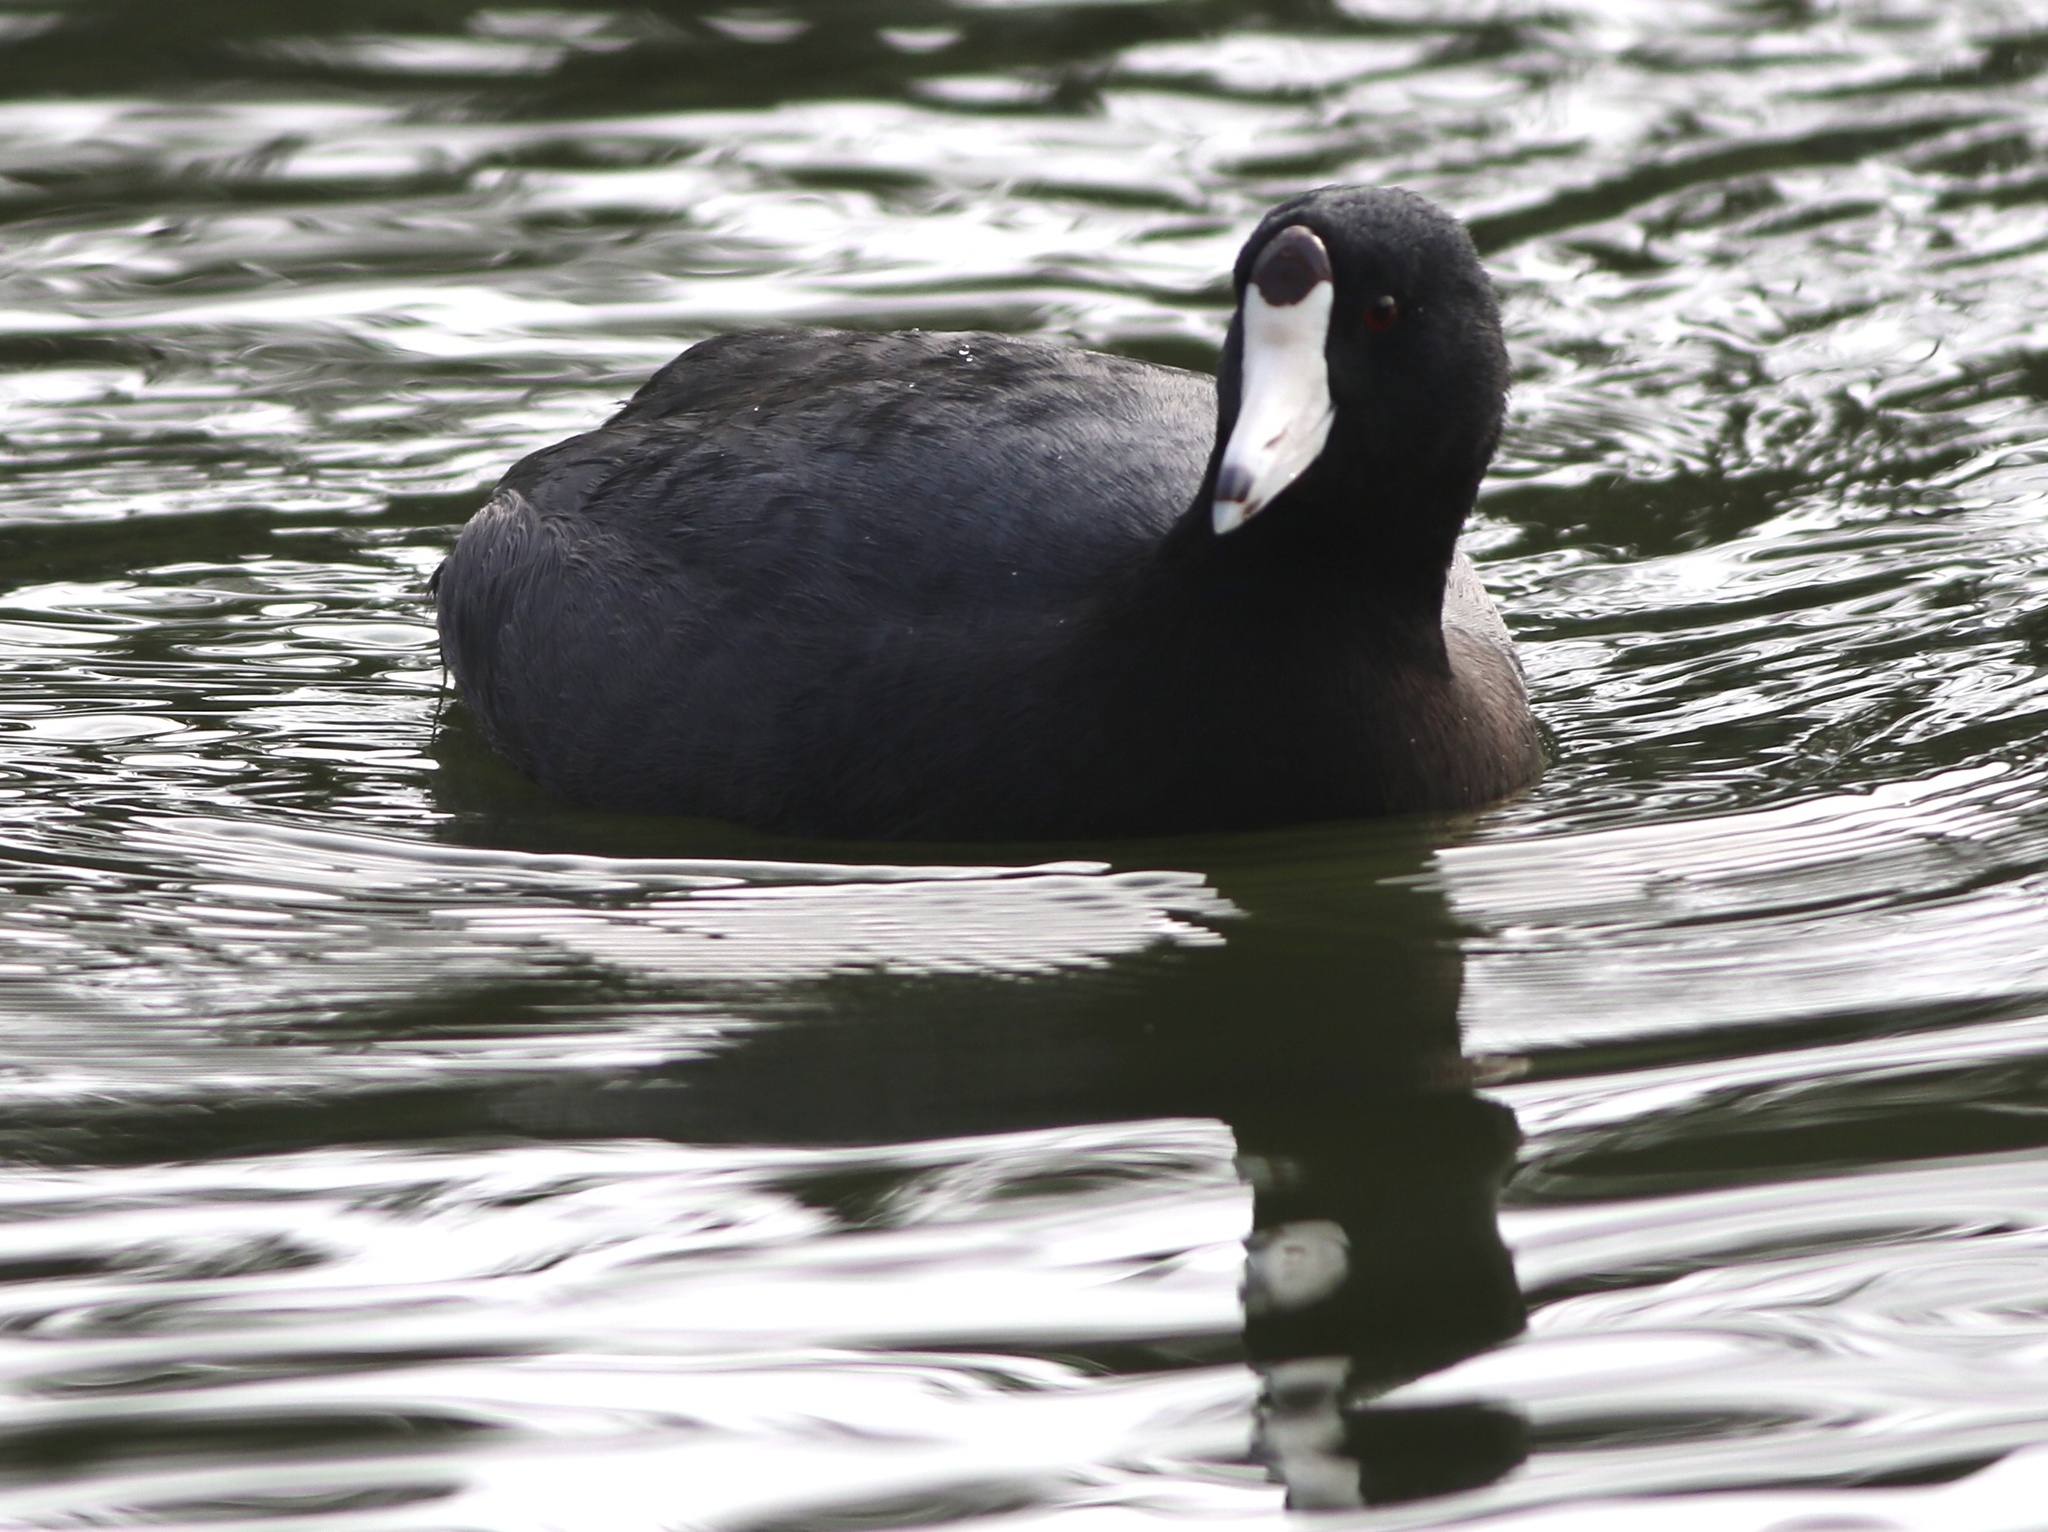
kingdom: Animalia
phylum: Chordata
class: Aves
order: Gruiformes
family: Rallidae
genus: Fulica
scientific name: Fulica americana
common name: American coot
